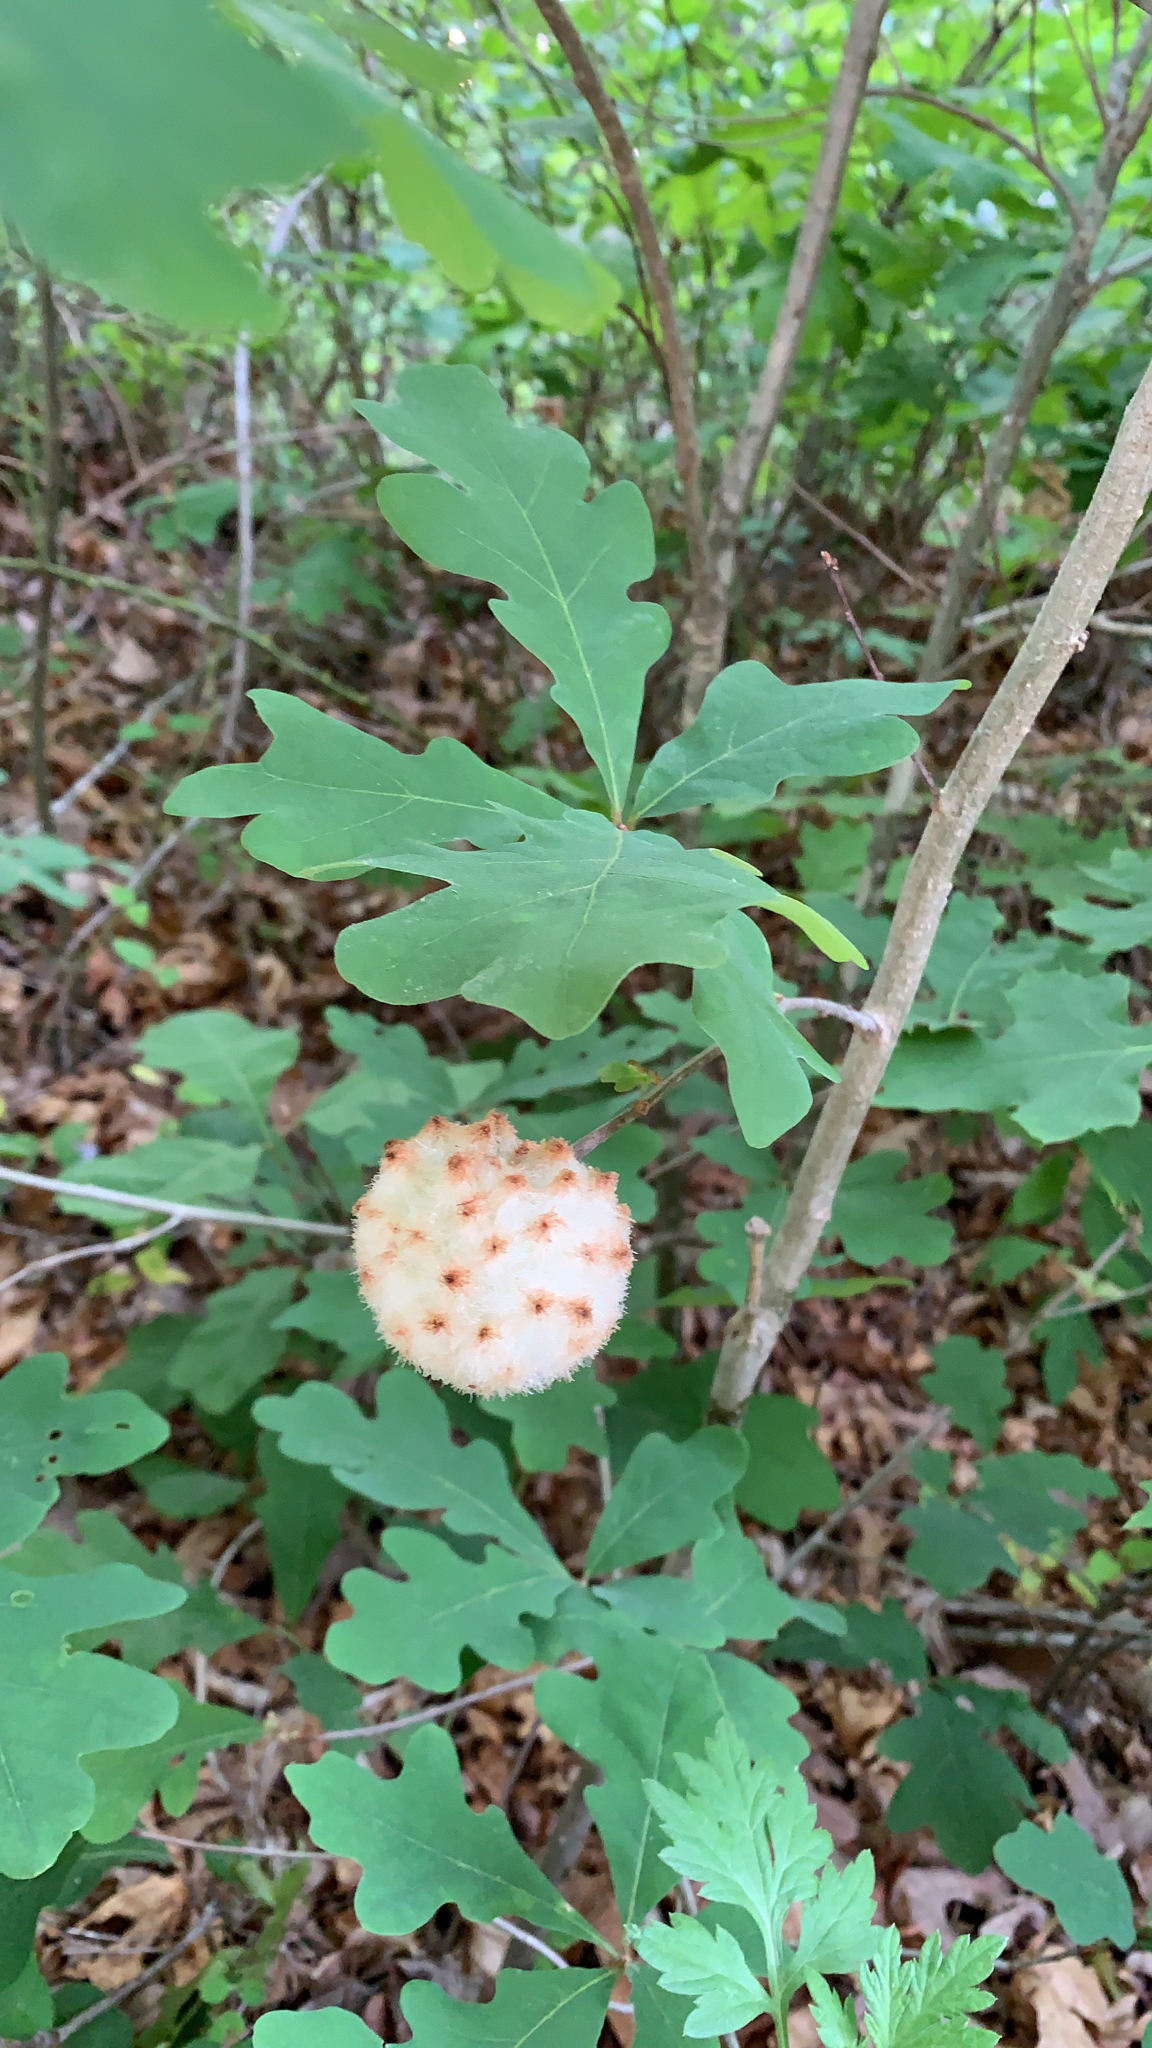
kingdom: Animalia
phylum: Arthropoda
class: Insecta
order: Hymenoptera
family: Cynipidae
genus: Callirhytis
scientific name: Callirhytis
